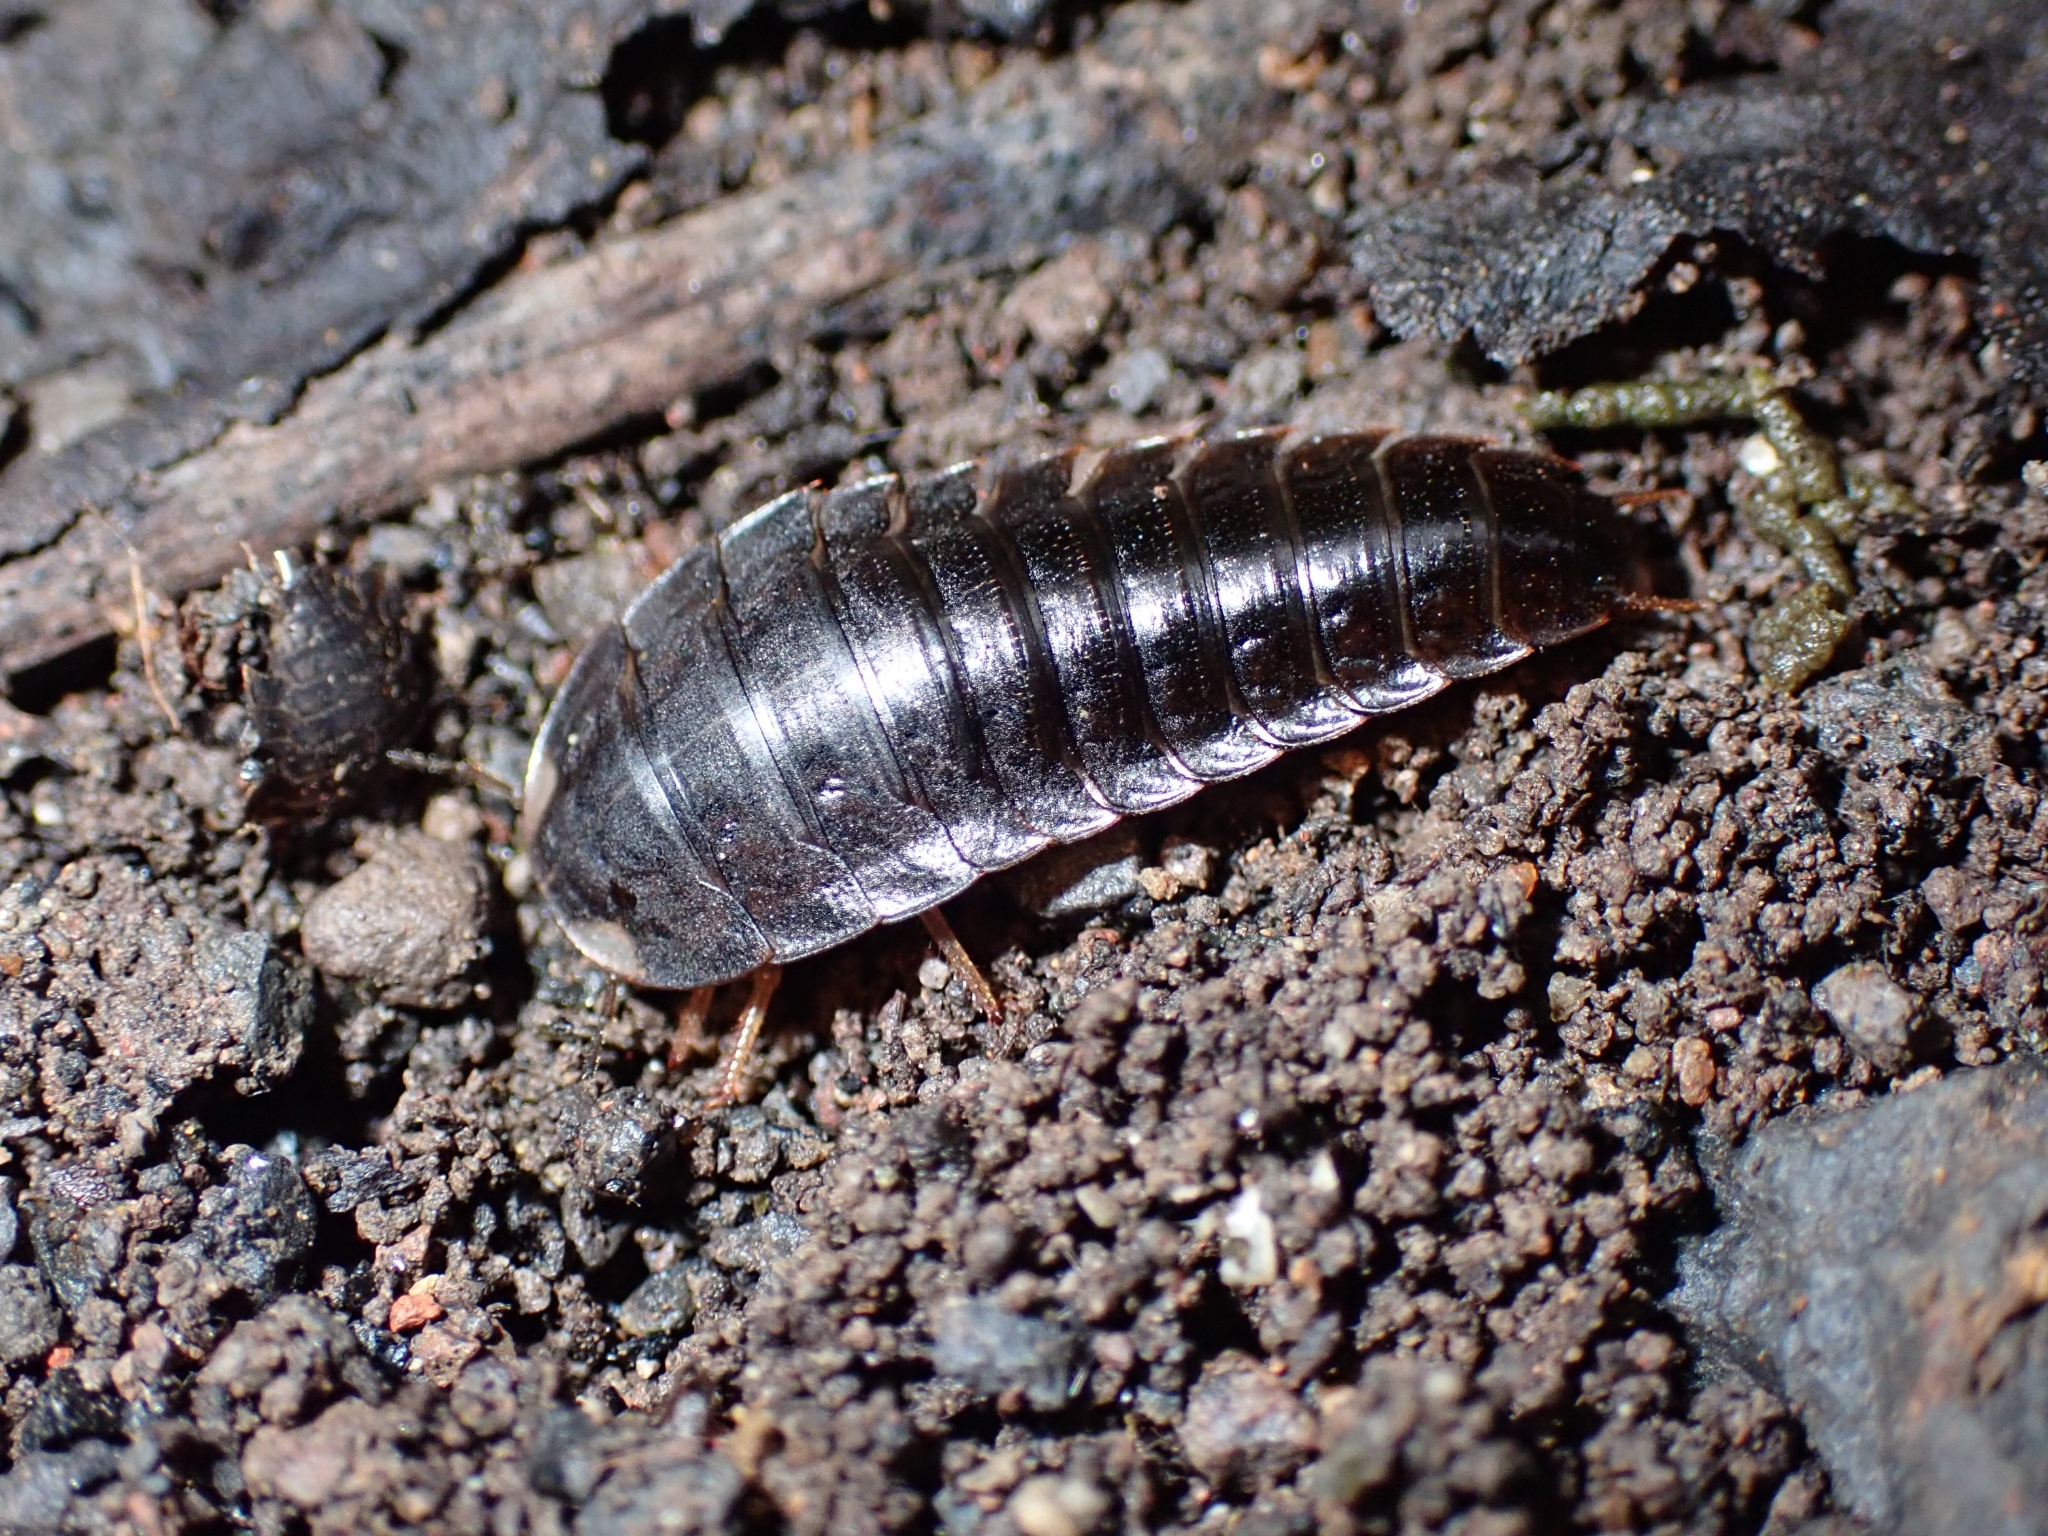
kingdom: Animalia
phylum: Arthropoda
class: Insecta
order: Coleoptera
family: Staphylinidae
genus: Heterotemna
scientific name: Heterotemna figurata
